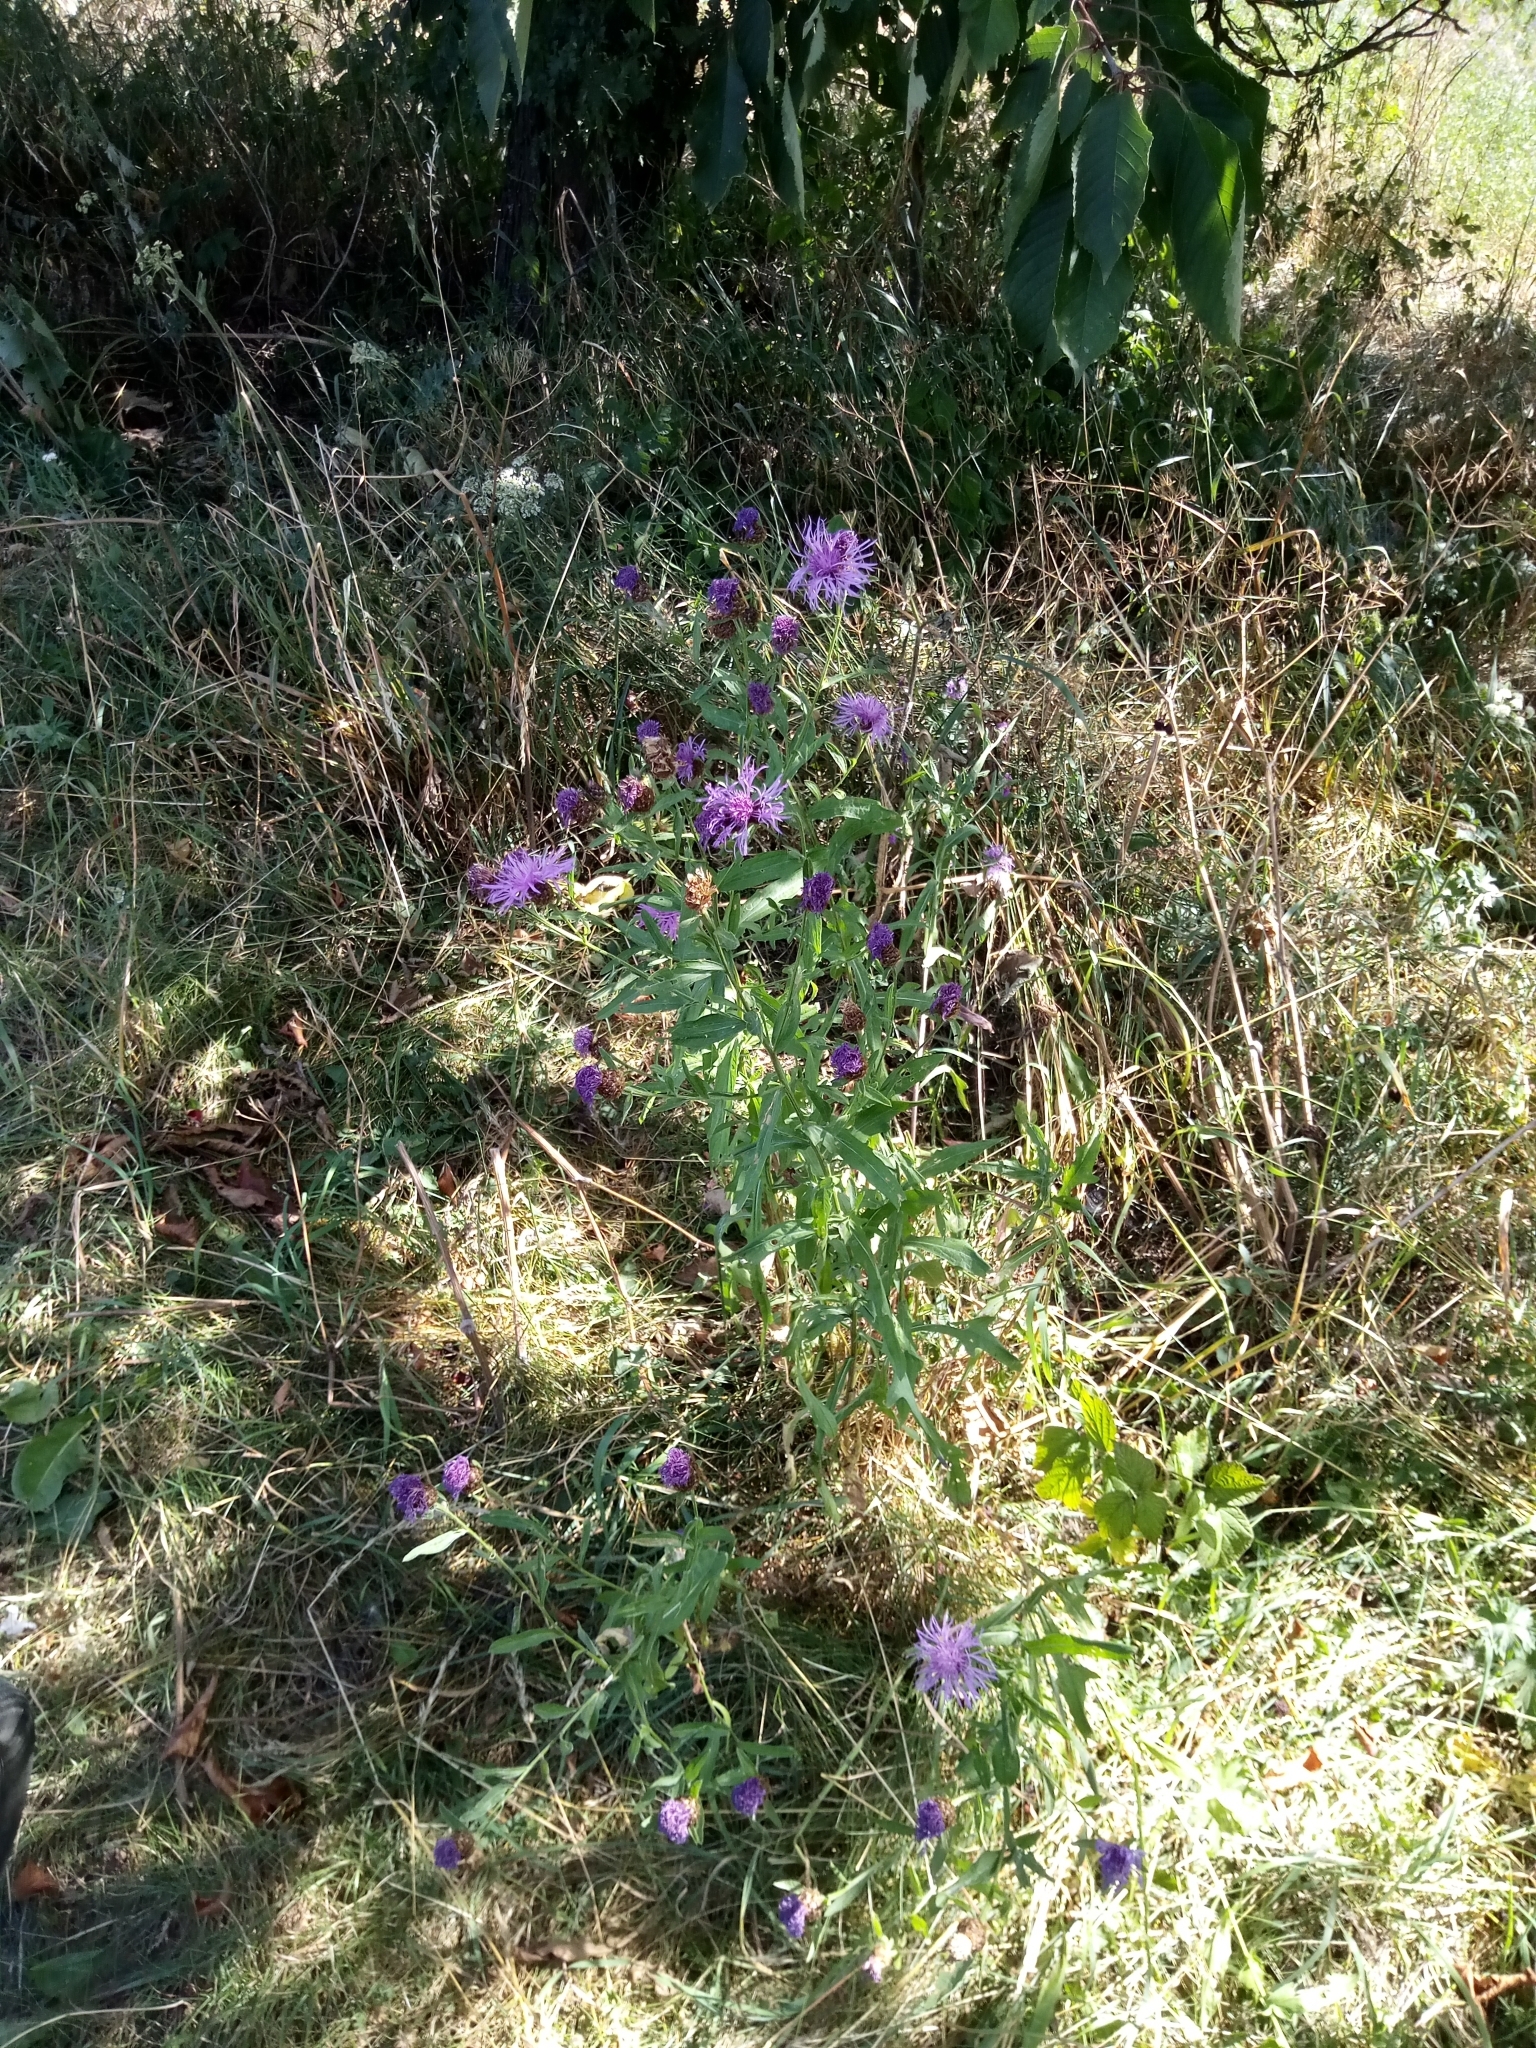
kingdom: Plantae
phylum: Tracheophyta
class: Magnoliopsida
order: Asterales
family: Asteraceae
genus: Centaurea
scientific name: Centaurea jacea
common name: Brown knapweed
